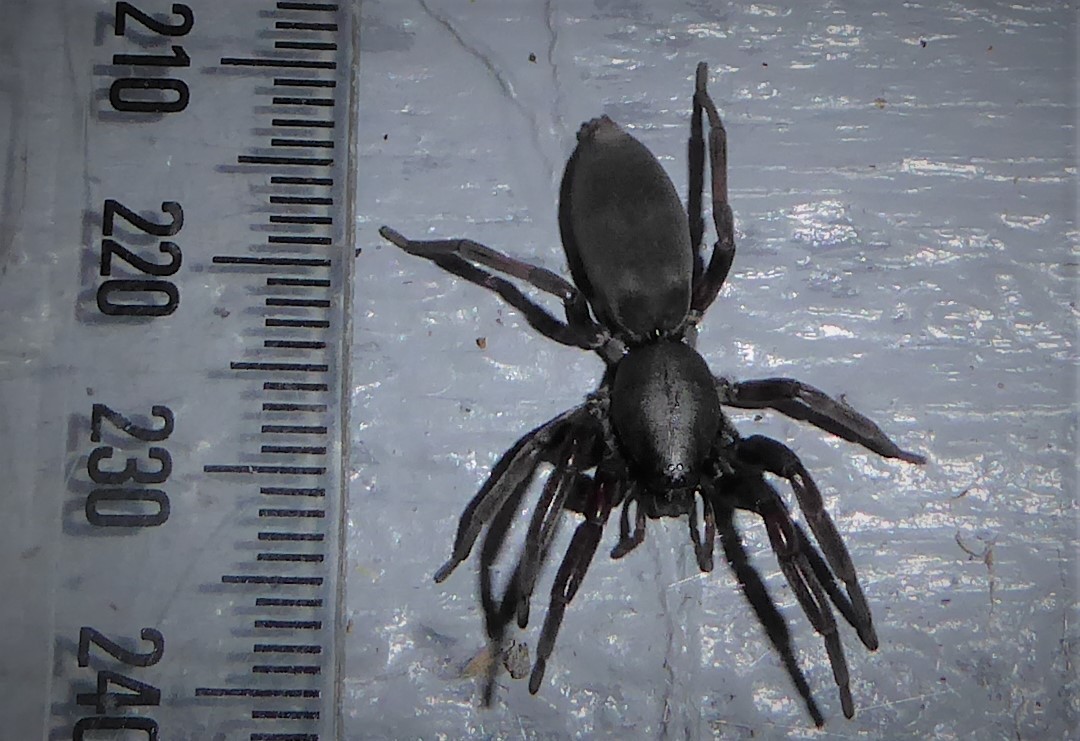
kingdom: Animalia
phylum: Arthropoda
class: Arachnida
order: Araneae
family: Lamponidae
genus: Lampona
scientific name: Lampona cylindrata
